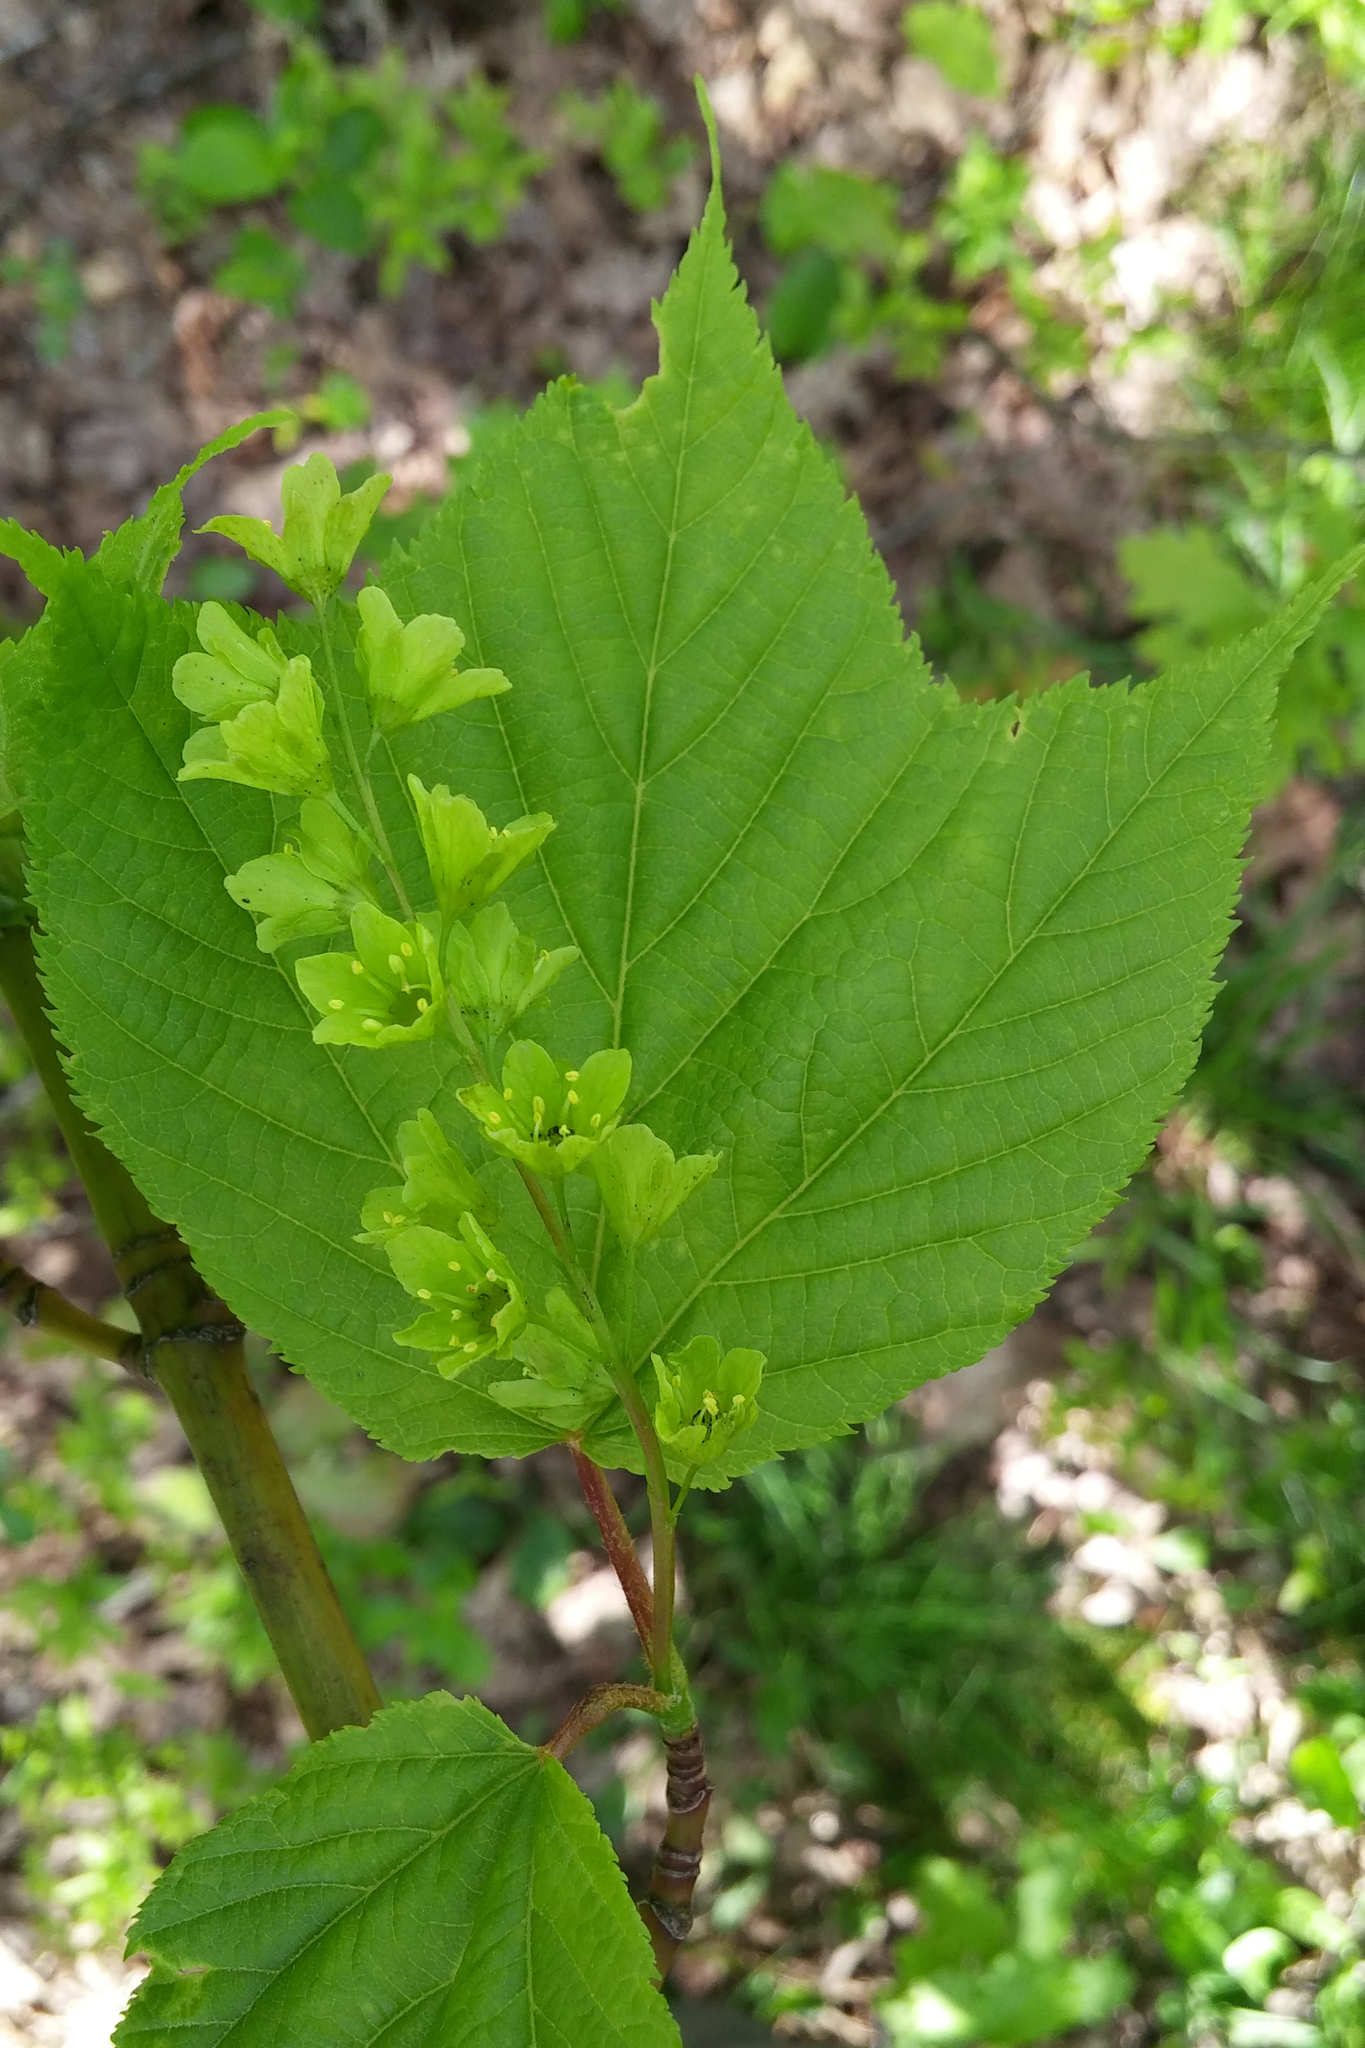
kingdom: Plantae
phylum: Tracheophyta
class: Magnoliopsida
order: Sapindales
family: Sapindaceae
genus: Acer
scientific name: Acer pensylvanicum
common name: Moosewood
